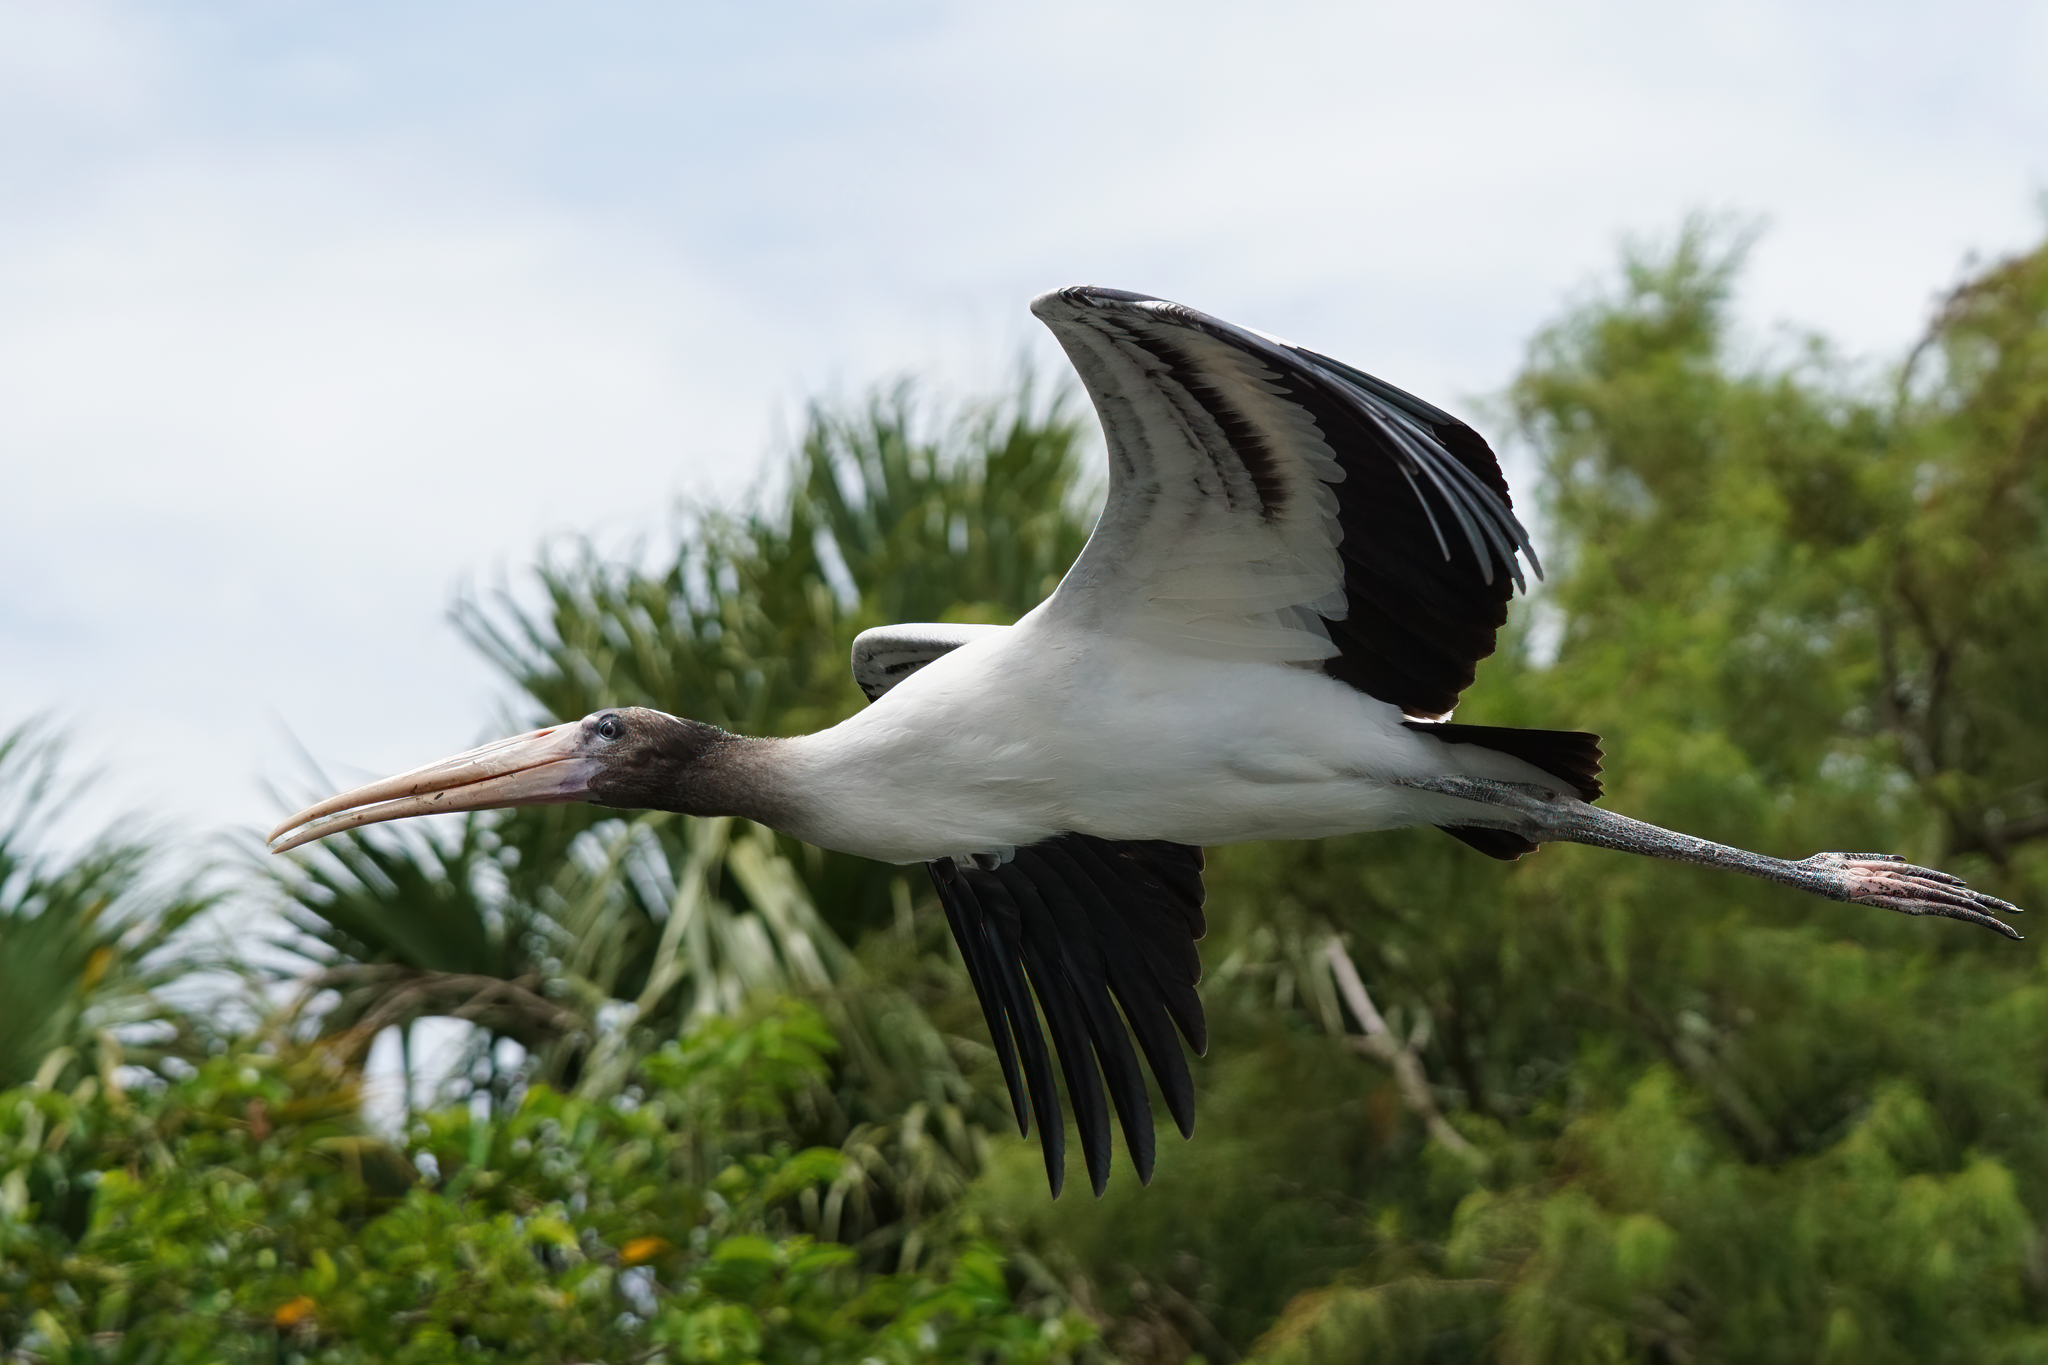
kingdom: Animalia
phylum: Chordata
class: Aves
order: Ciconiiformes
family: Ciconiidae
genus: Mycteria
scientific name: Mycteria americana
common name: Wood stork
